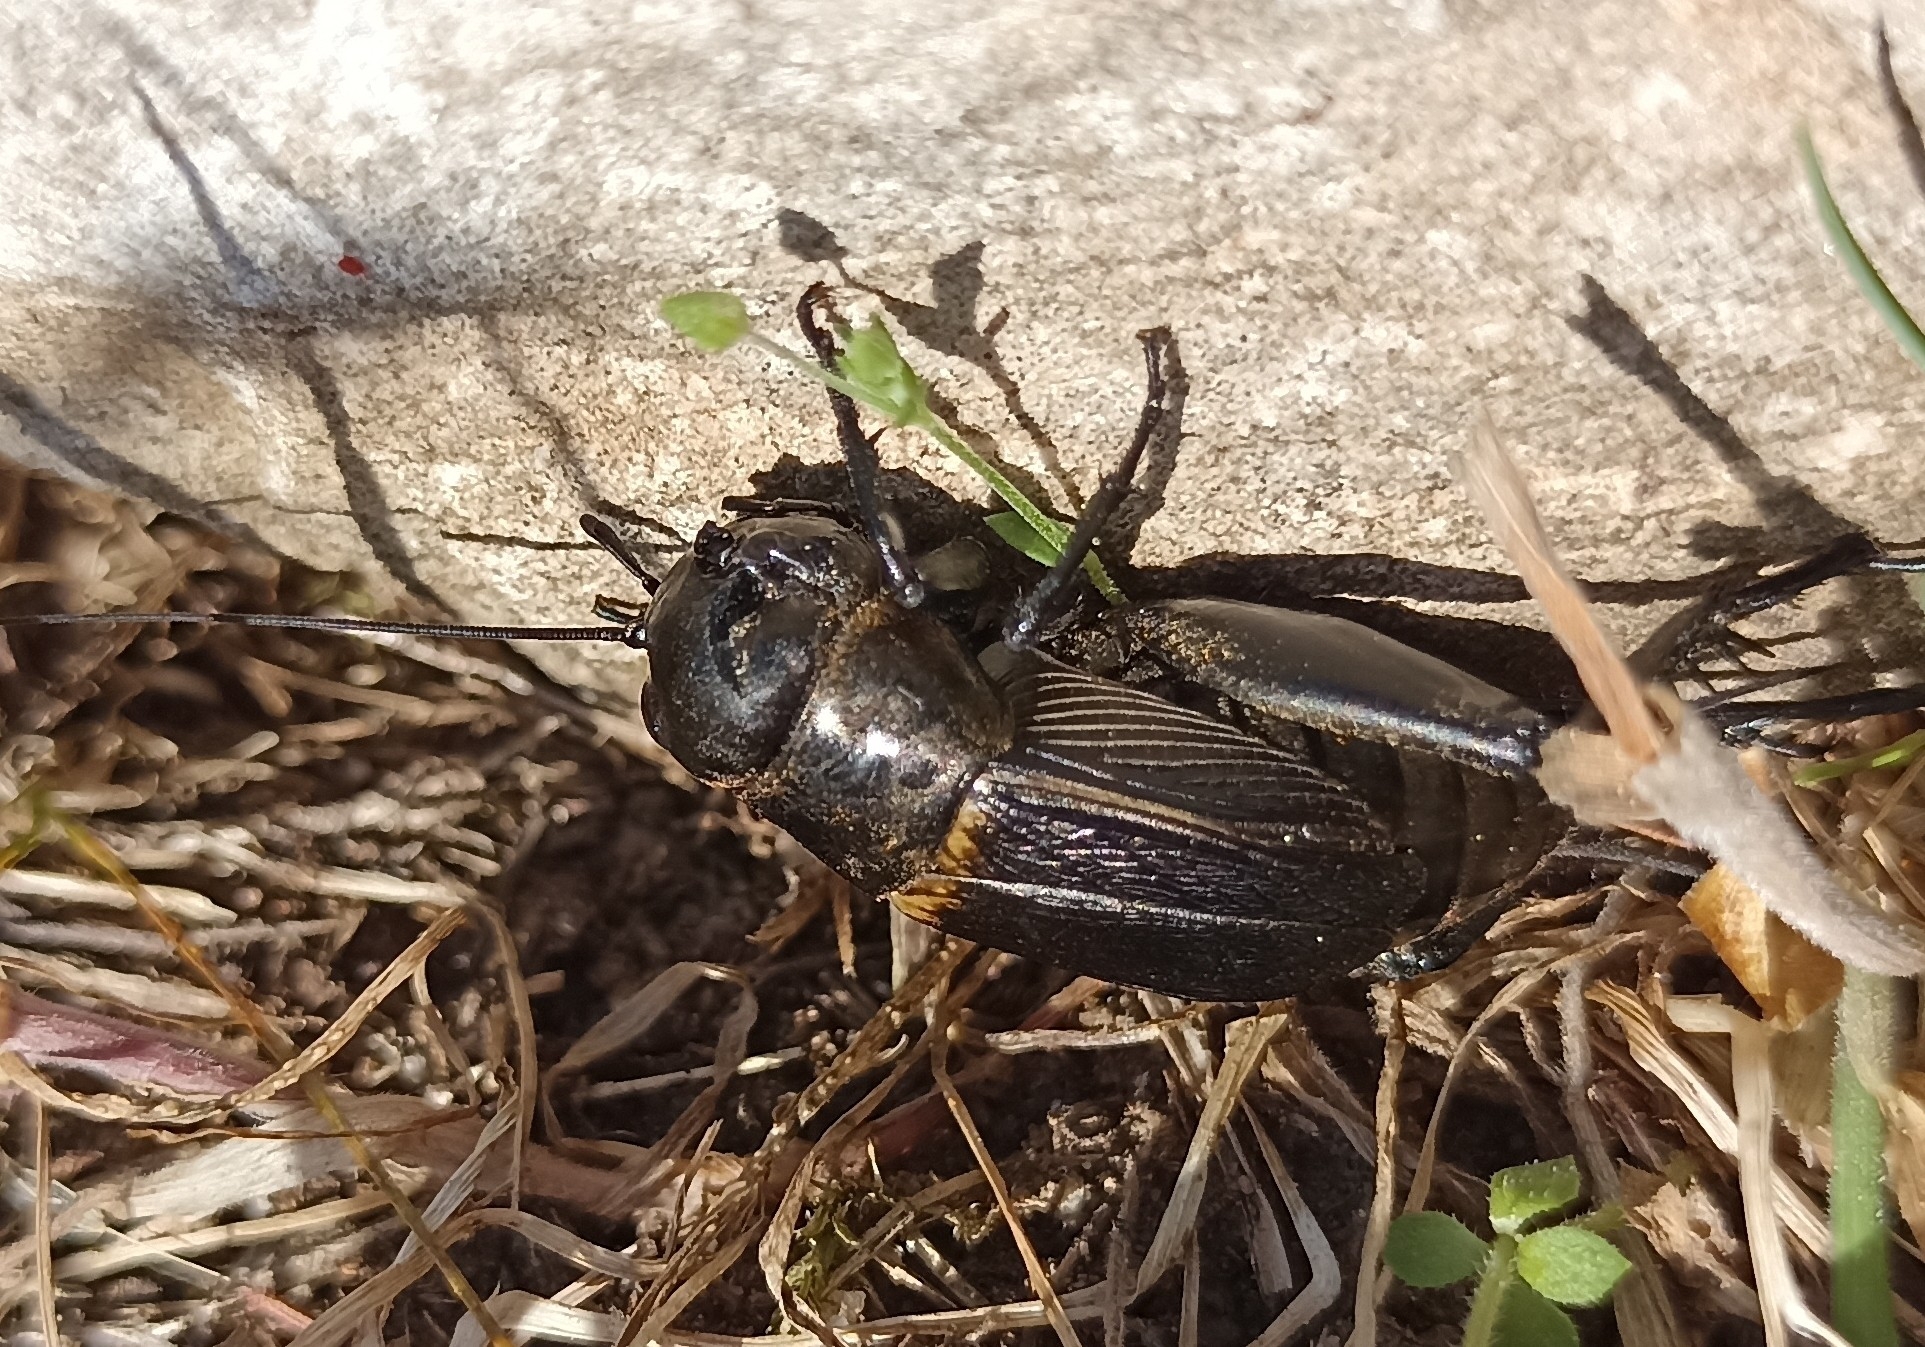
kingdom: Animalia
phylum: Arthropoda
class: Insecta
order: Orthoptera
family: Gryllidae
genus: Gryllus
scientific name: Gryllus campestris
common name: Field cricket
